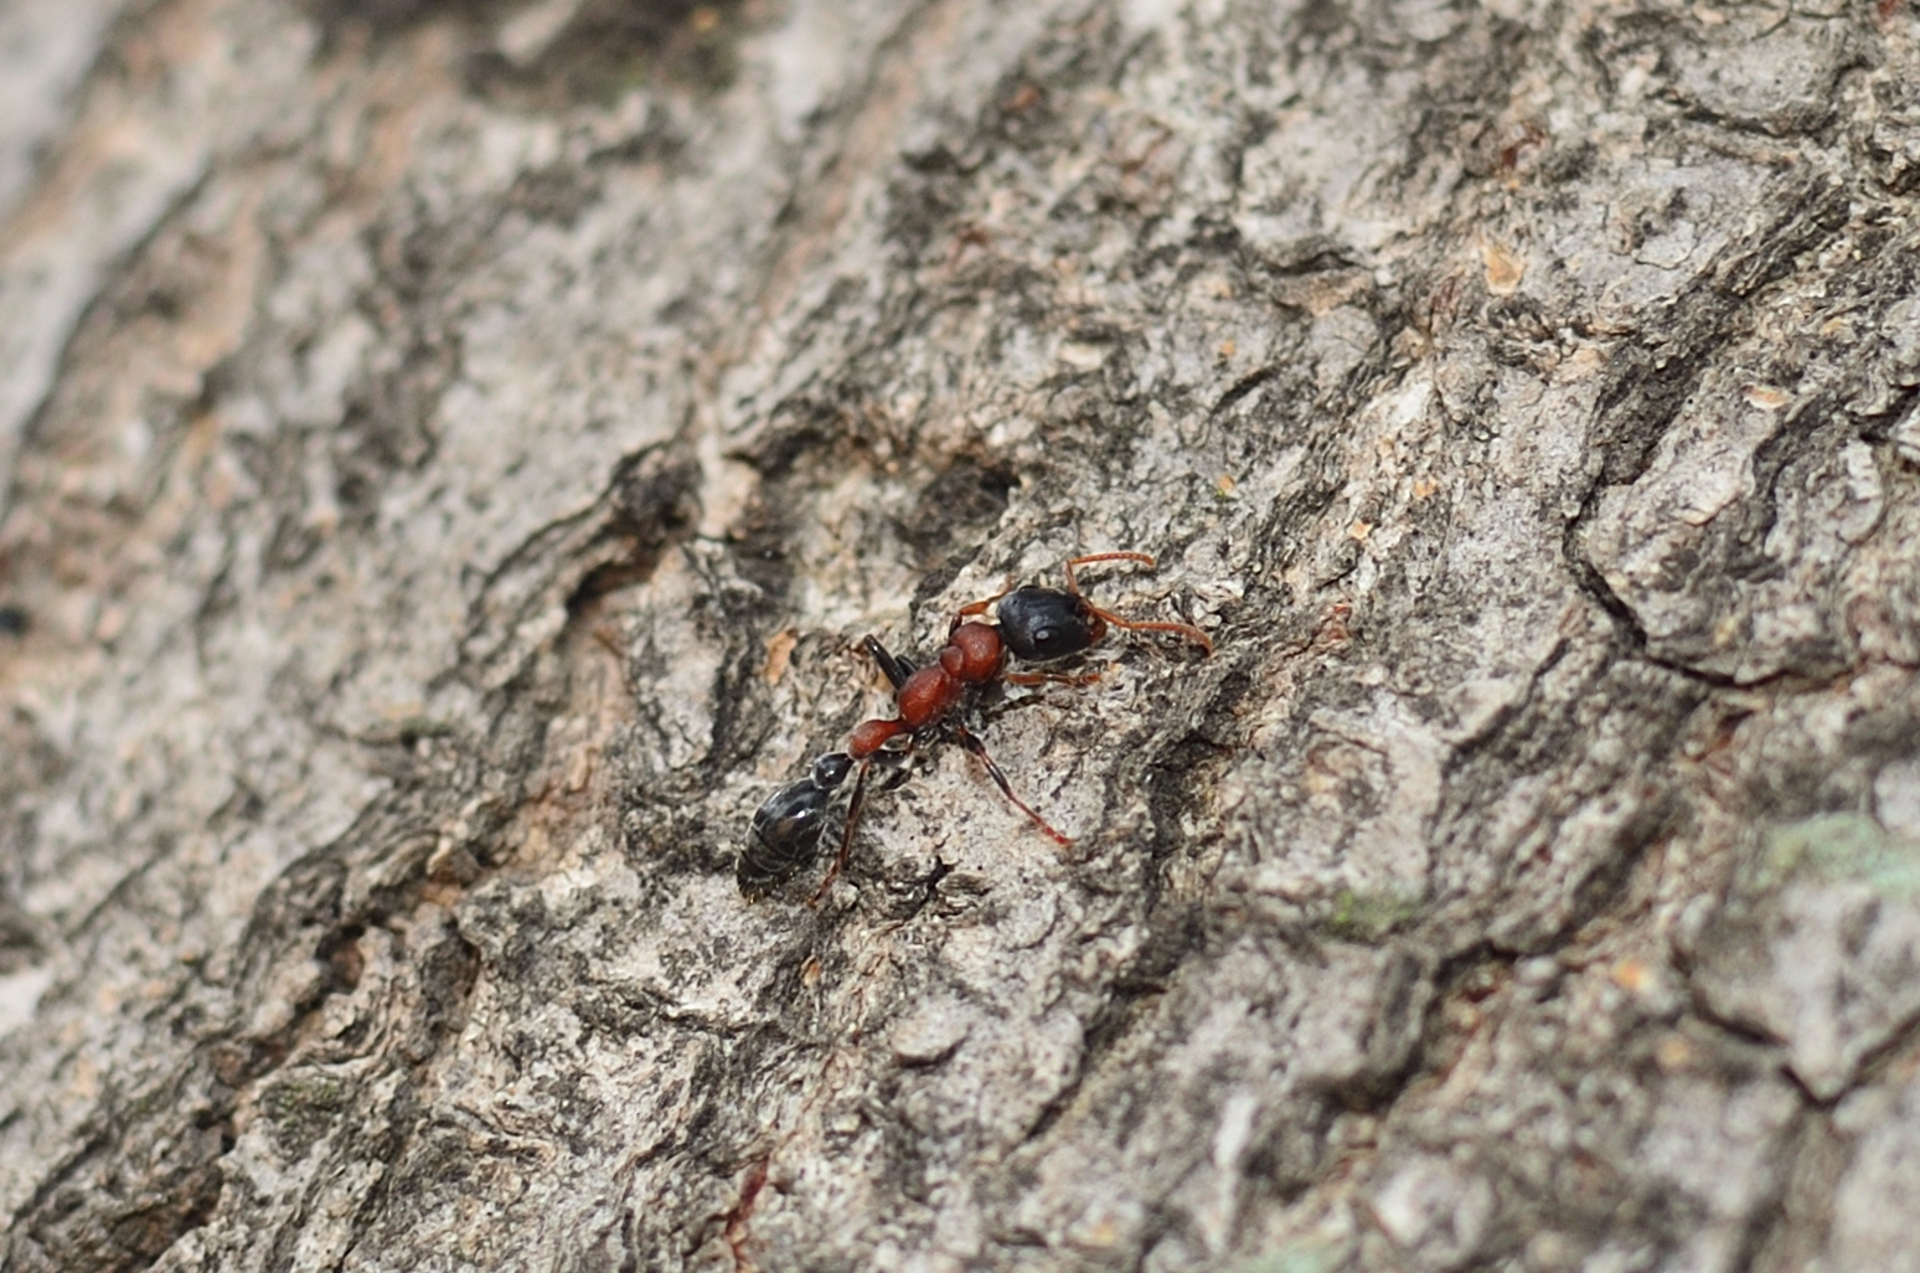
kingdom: Animalia
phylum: Arthropoda
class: Insecta
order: Hymenoptera
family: Formicidae
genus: Tetraponera
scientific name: Tetraponera rufonigra
